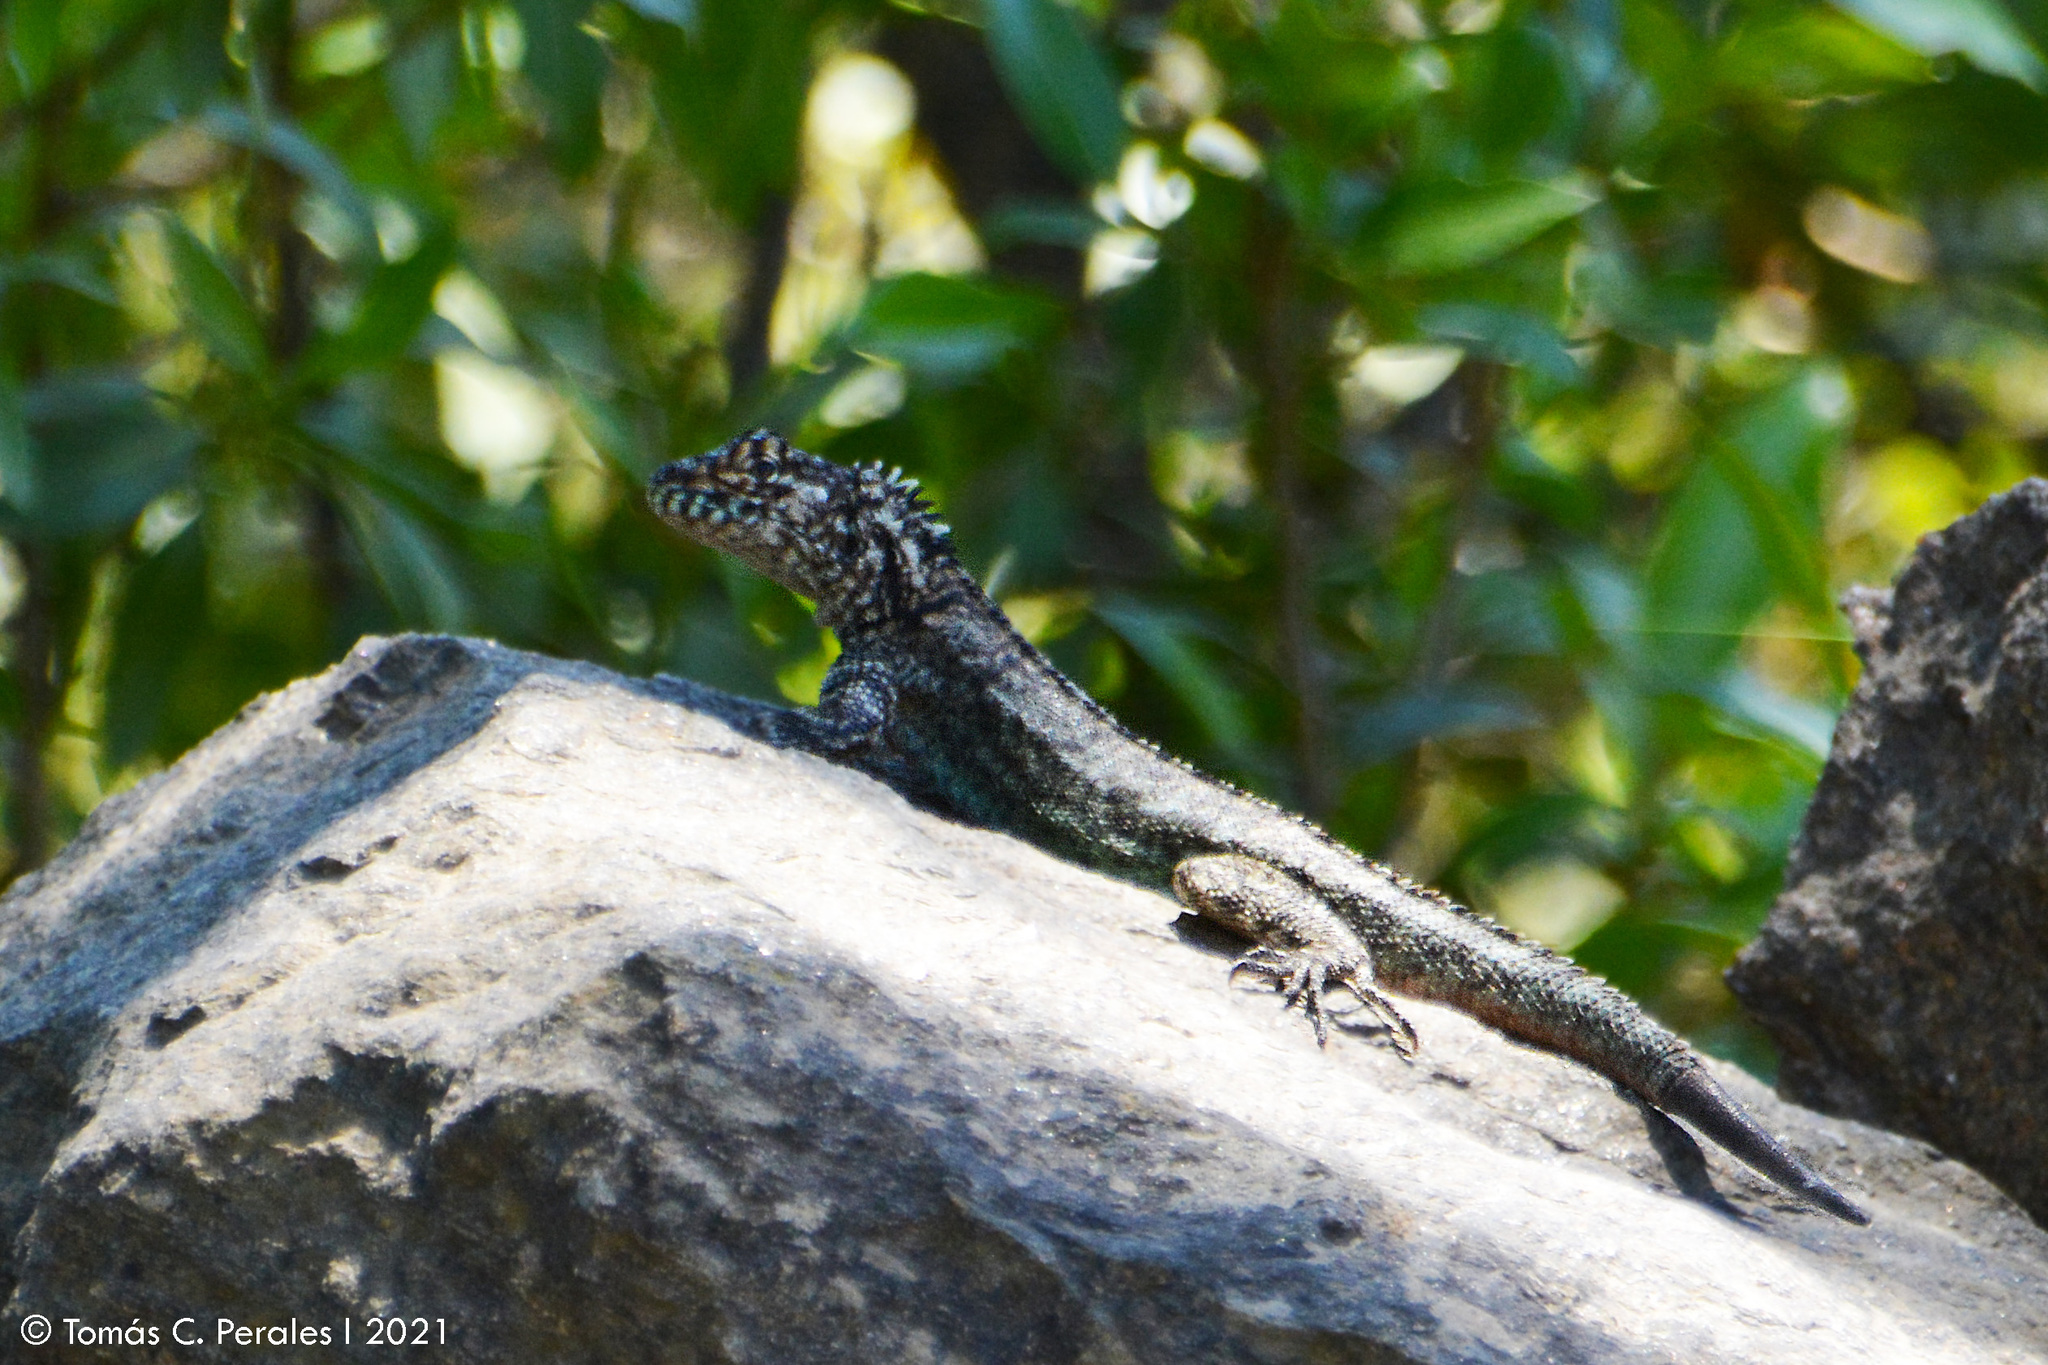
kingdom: Animalia
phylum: Chordata
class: Squamata
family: Tropiduridae
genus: Tropidurus
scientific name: Tropidurus spinulosus
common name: Spiny lava lizard
